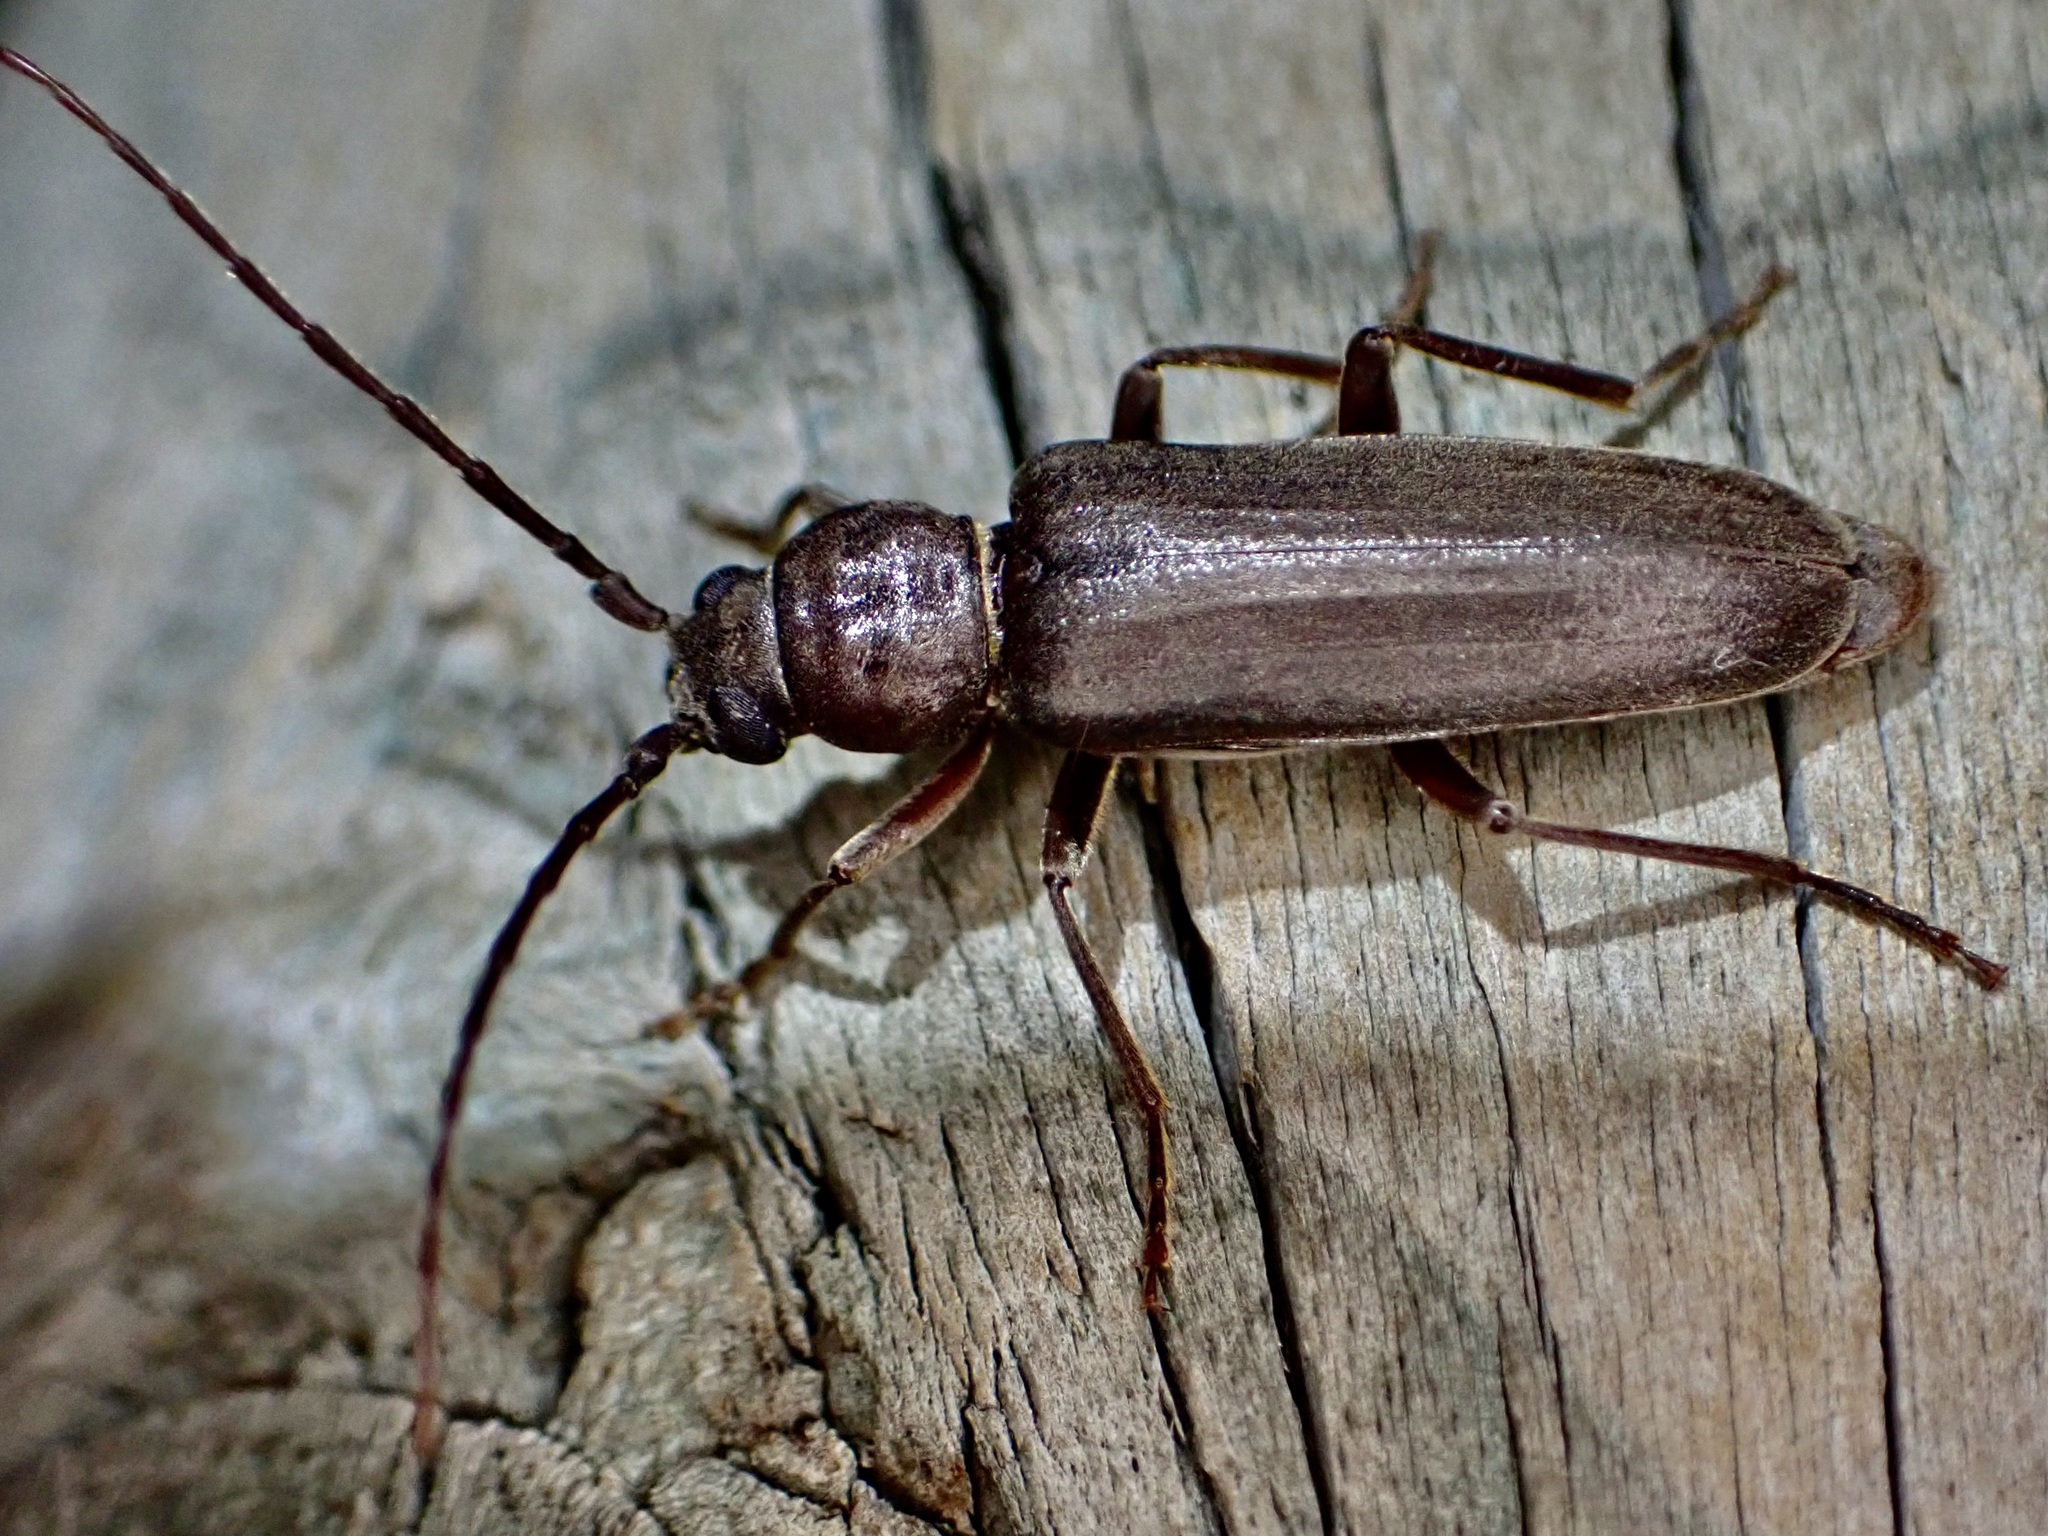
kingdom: Animalia
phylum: Arthropoda
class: Insecta
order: Coleoptera
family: Cerambycidae
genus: Arhopalus
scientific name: Arhopalus ferus
